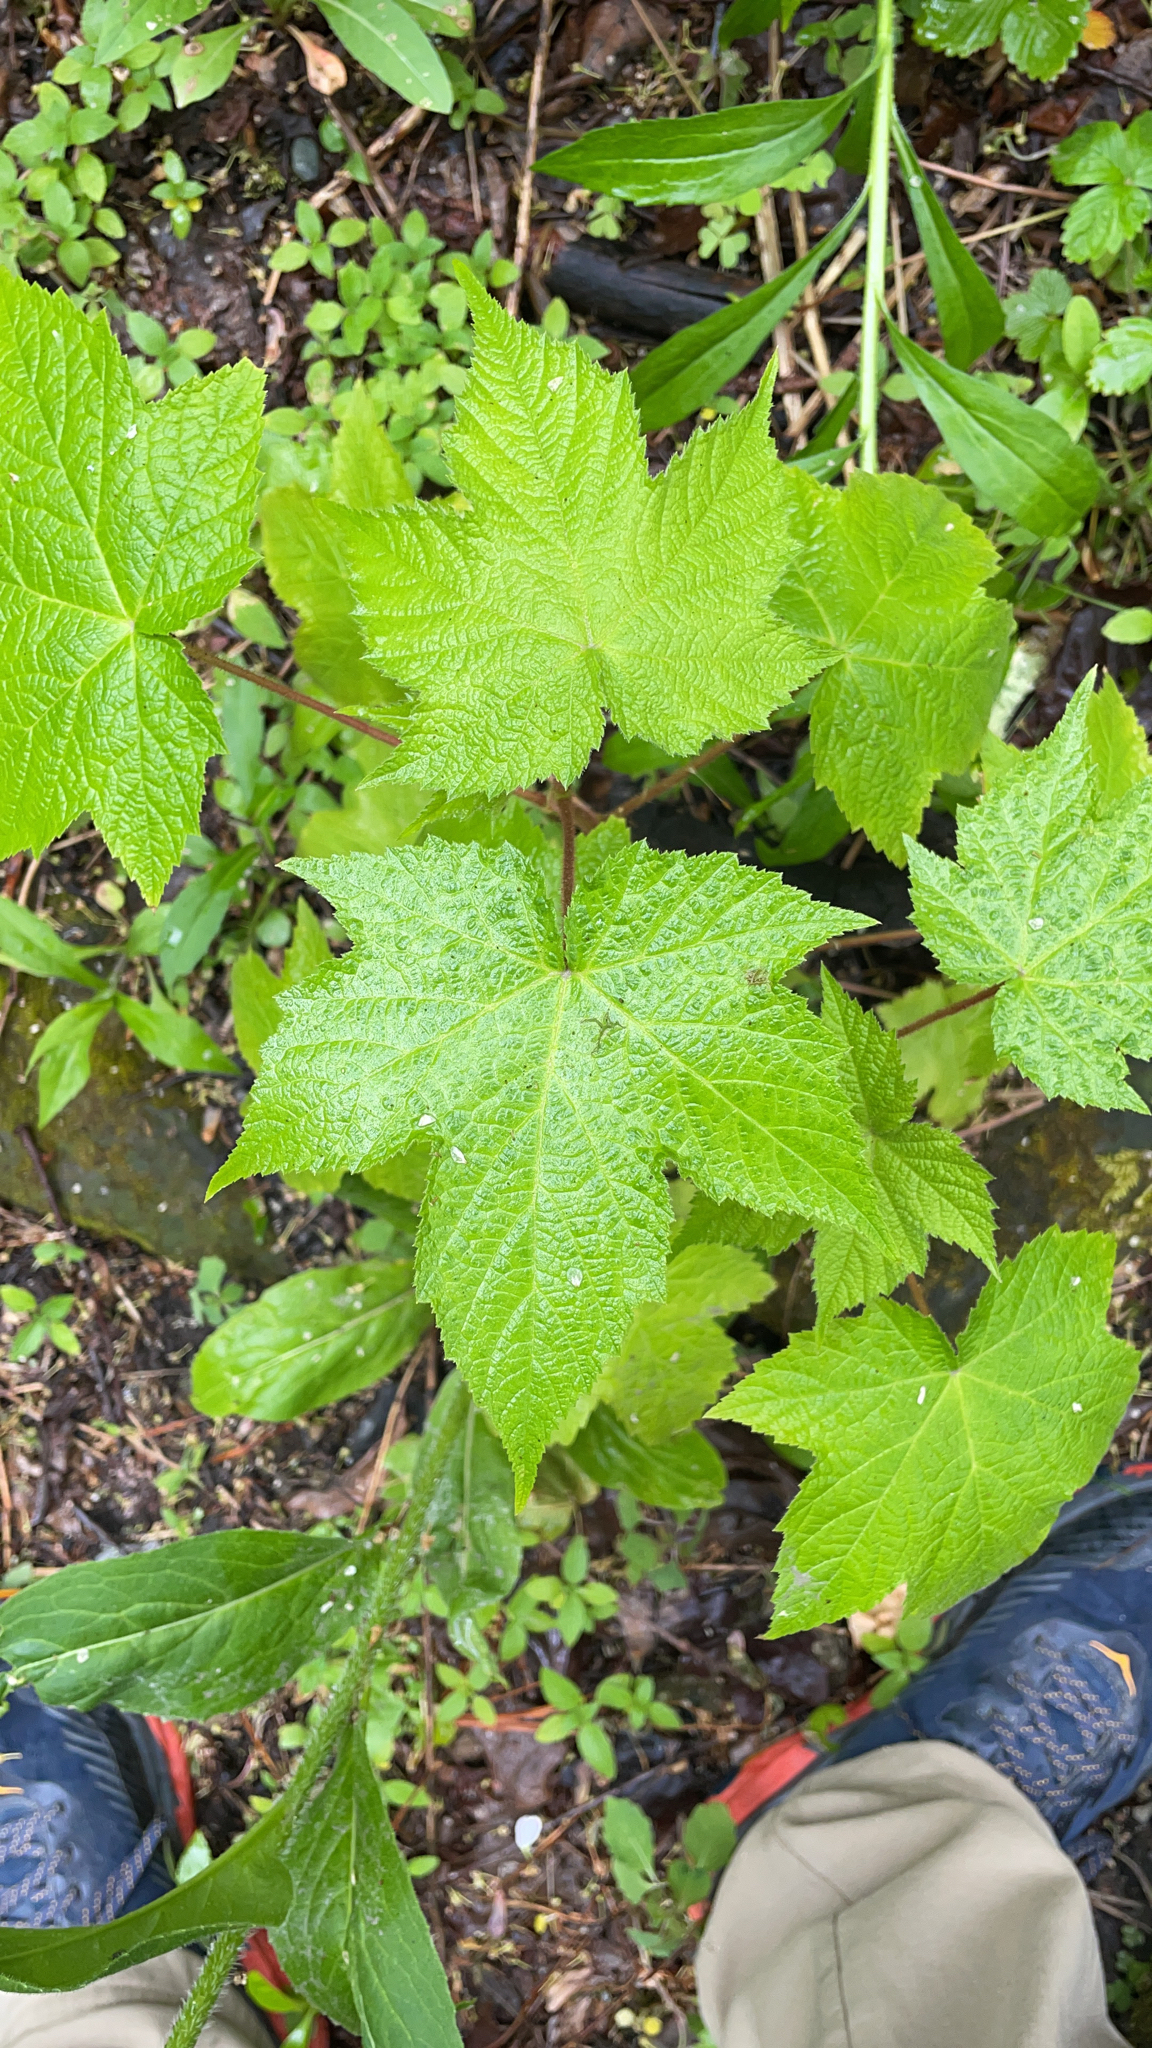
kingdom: Plantae
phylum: Tracheophyta
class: Magnoliopsida
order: Rosales
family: Rosaceae
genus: Rubus
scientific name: Rubus odoratus
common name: Purple-flowered raspberry
